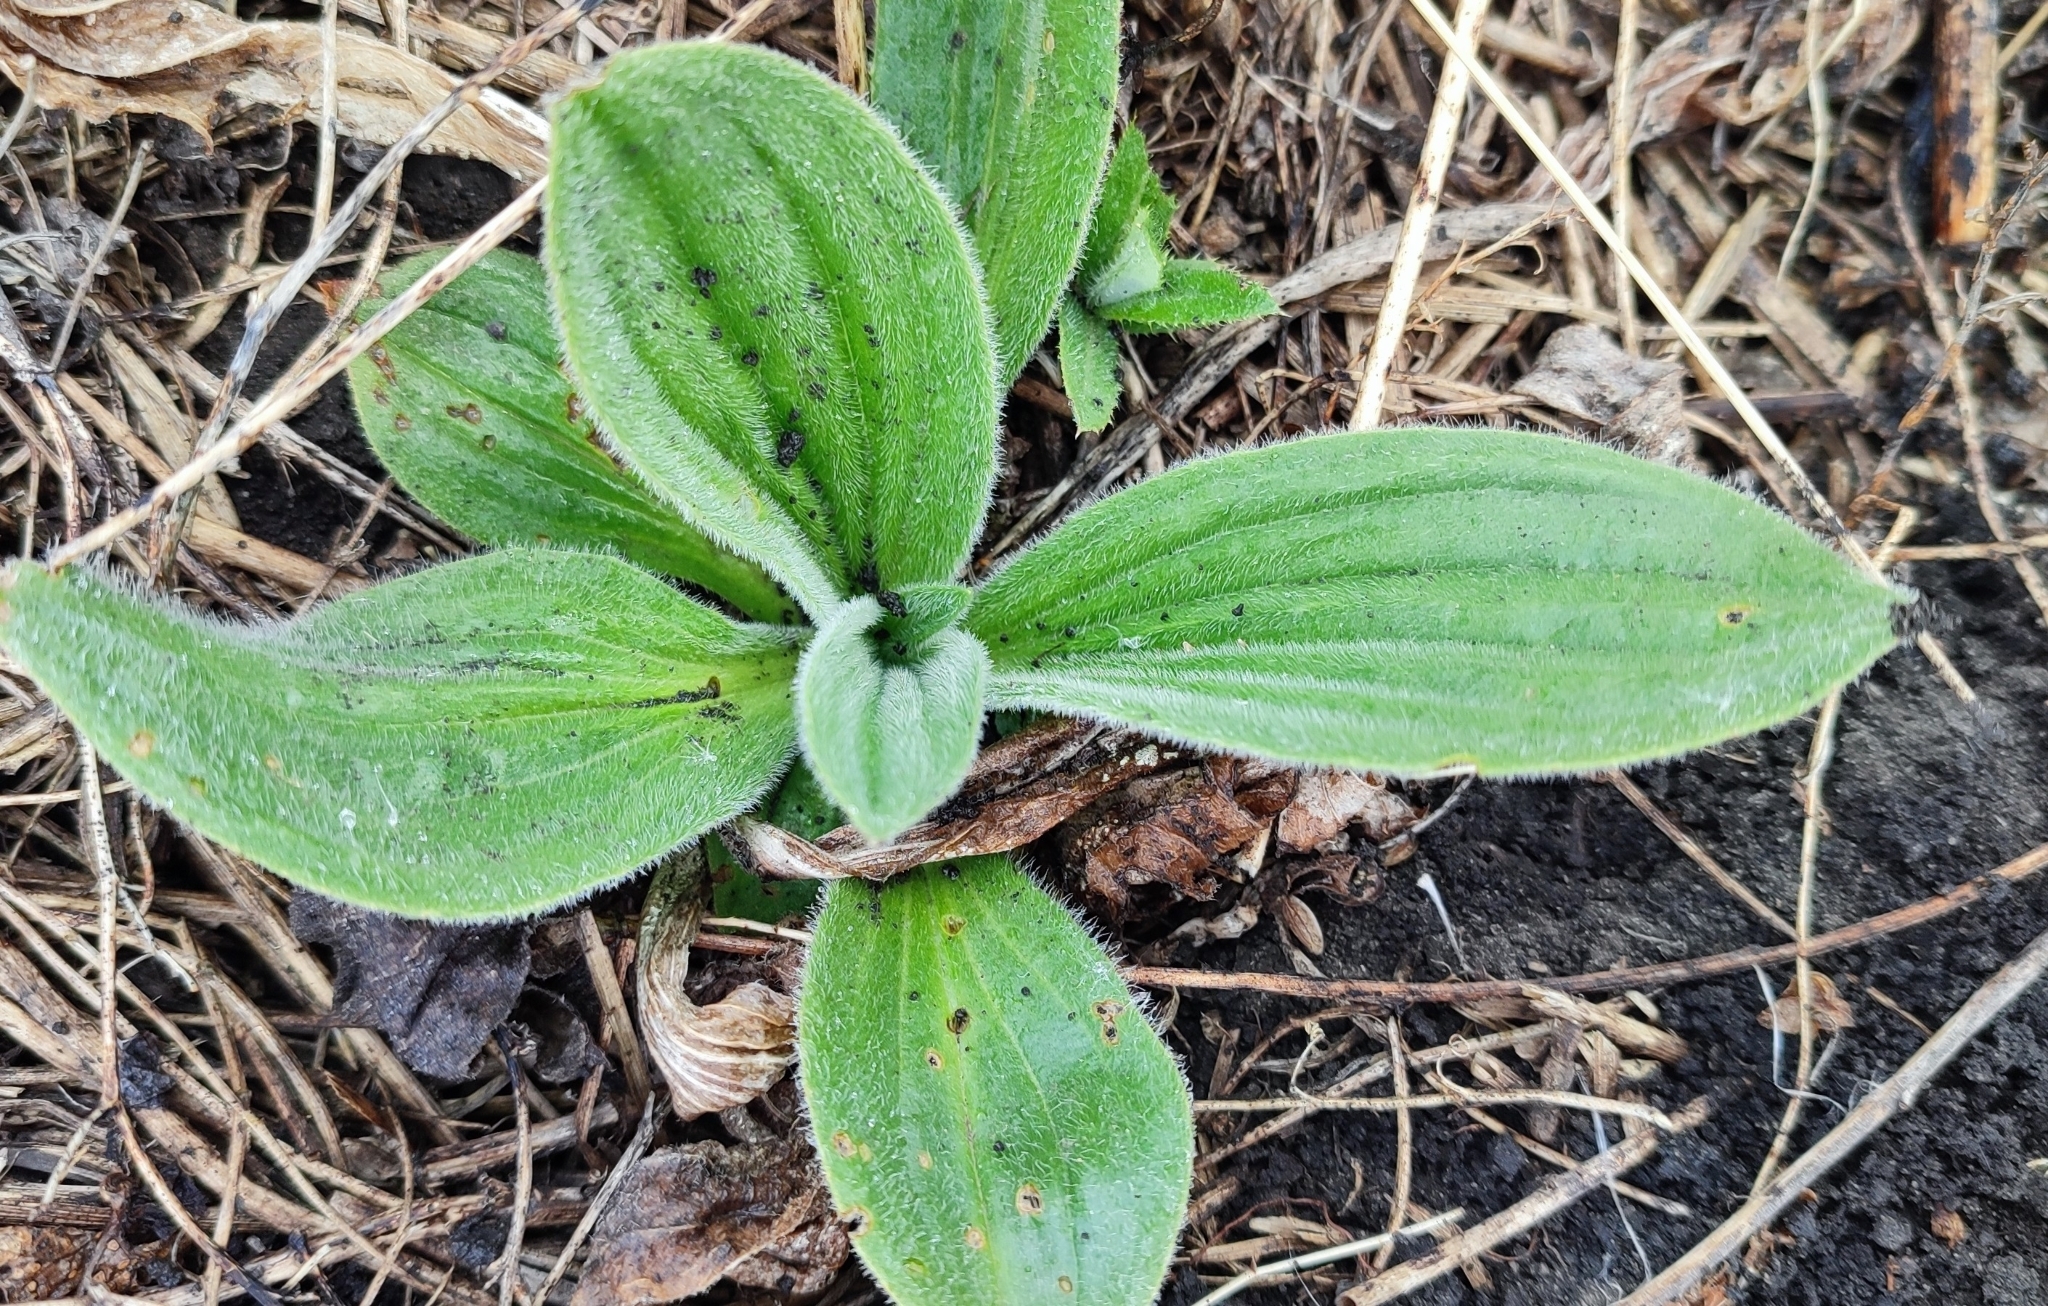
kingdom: Plantae
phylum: Tracheophyta
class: Magnoliopsida
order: Lamiales
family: Plantaginaceae
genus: Plantago
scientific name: Plantago media
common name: Hoary plantain
